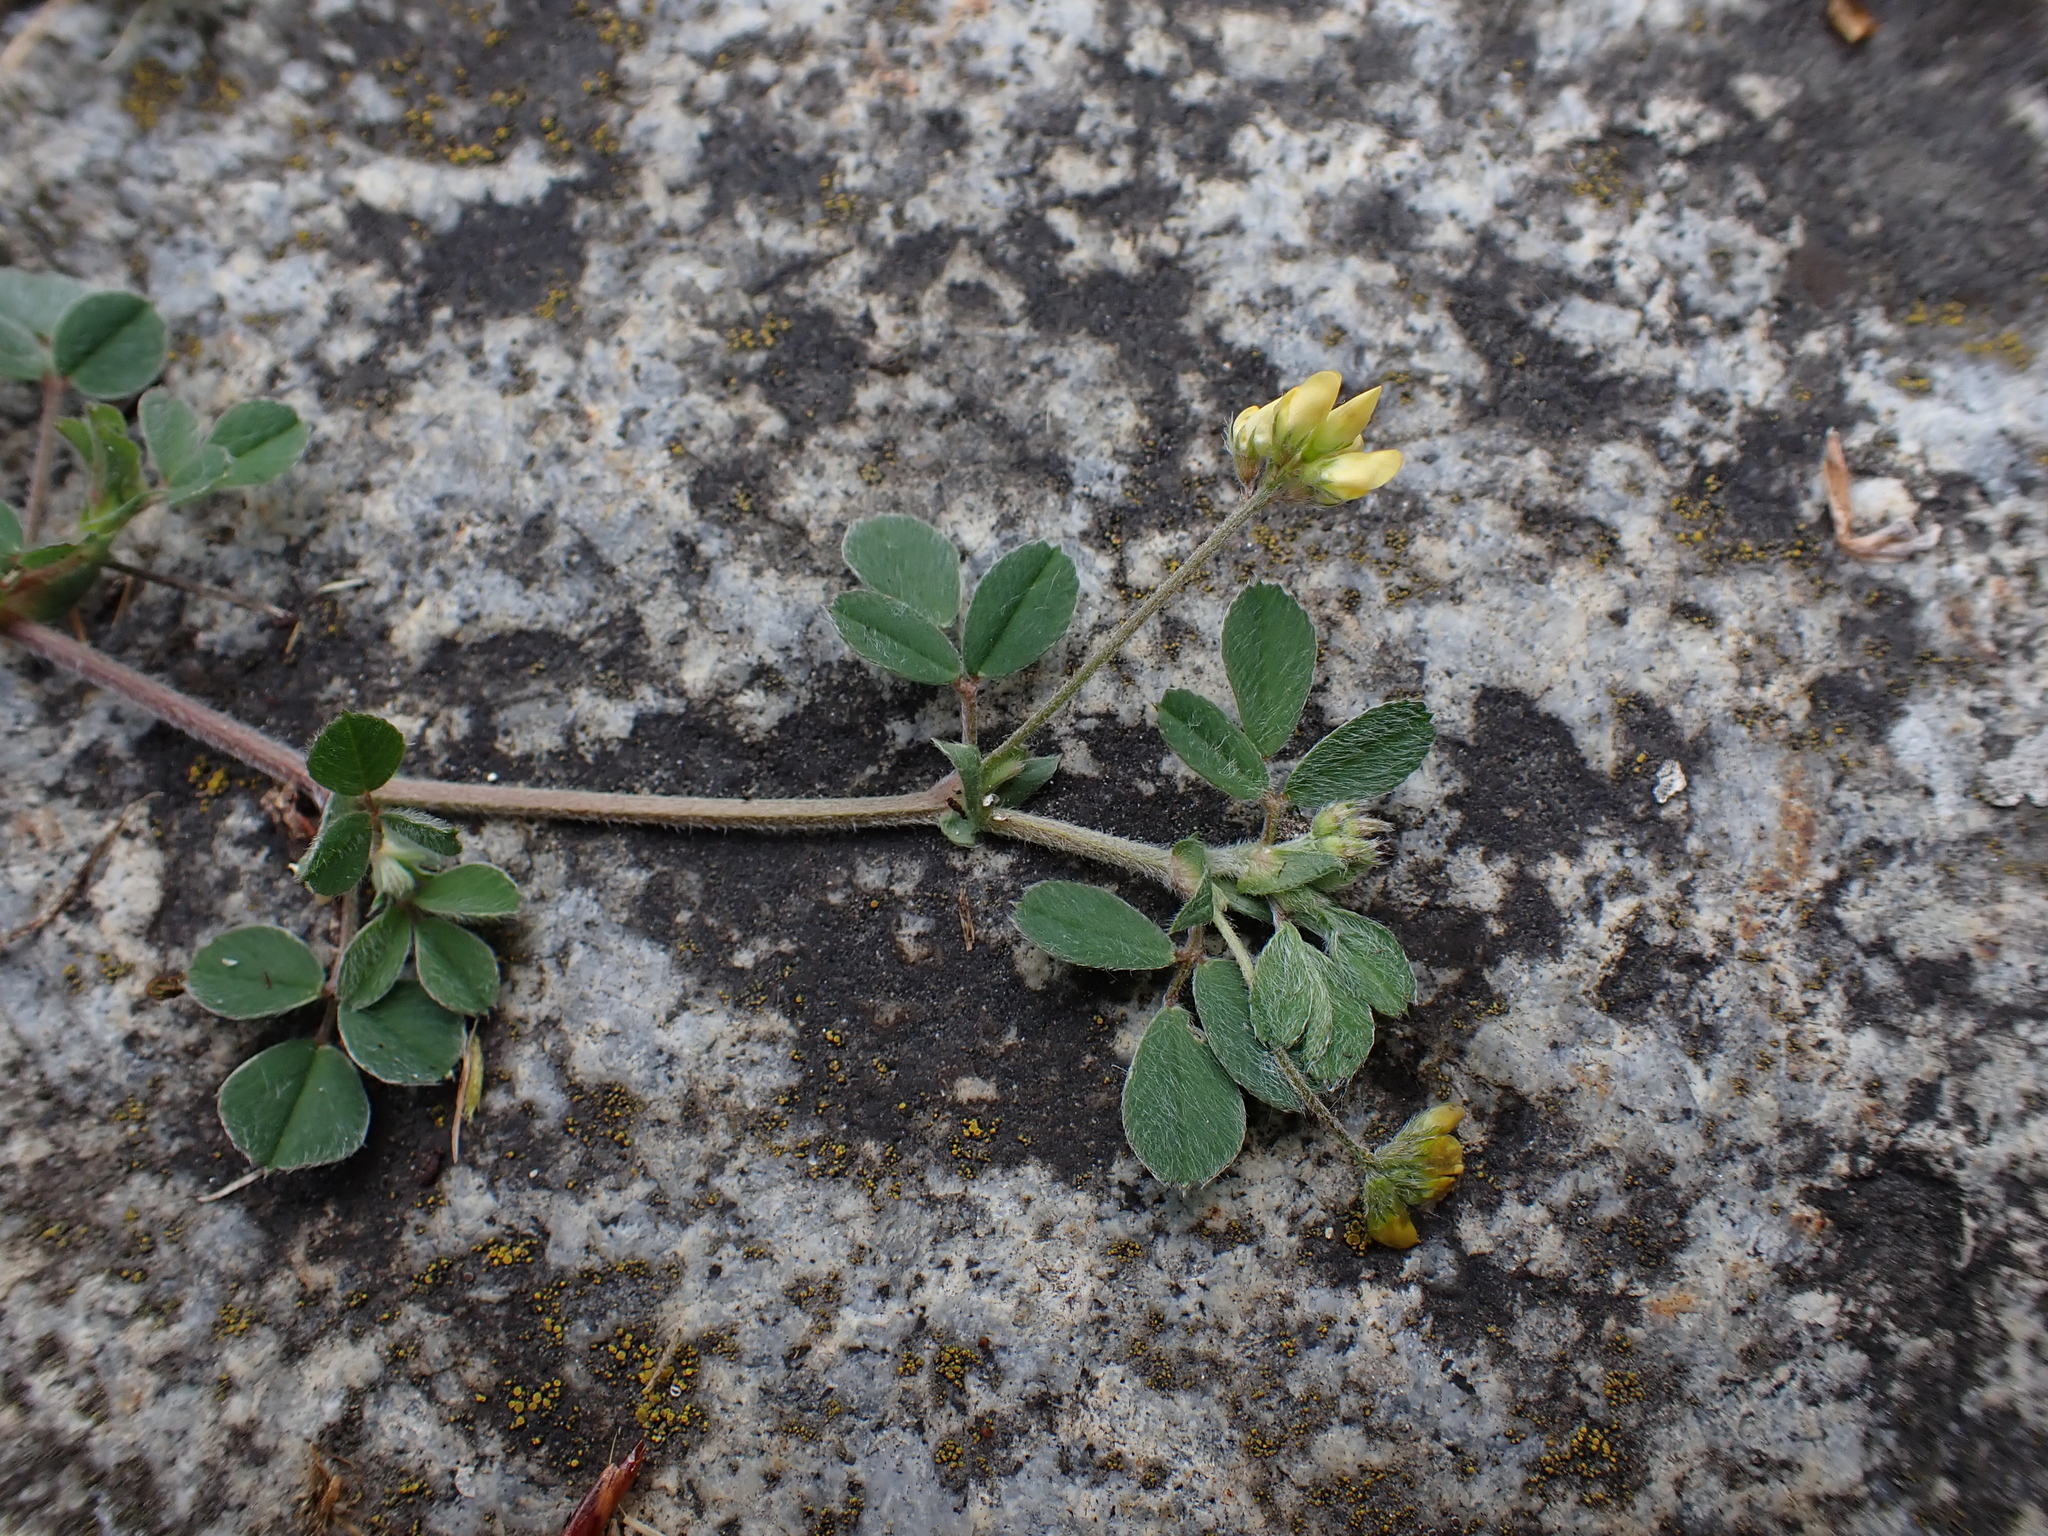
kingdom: Plantae
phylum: Tracheophyta
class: Magnoliopsida
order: Fabales
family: Fabaceae
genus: Medicago
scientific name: Medicago minima
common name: Little bur-clover
